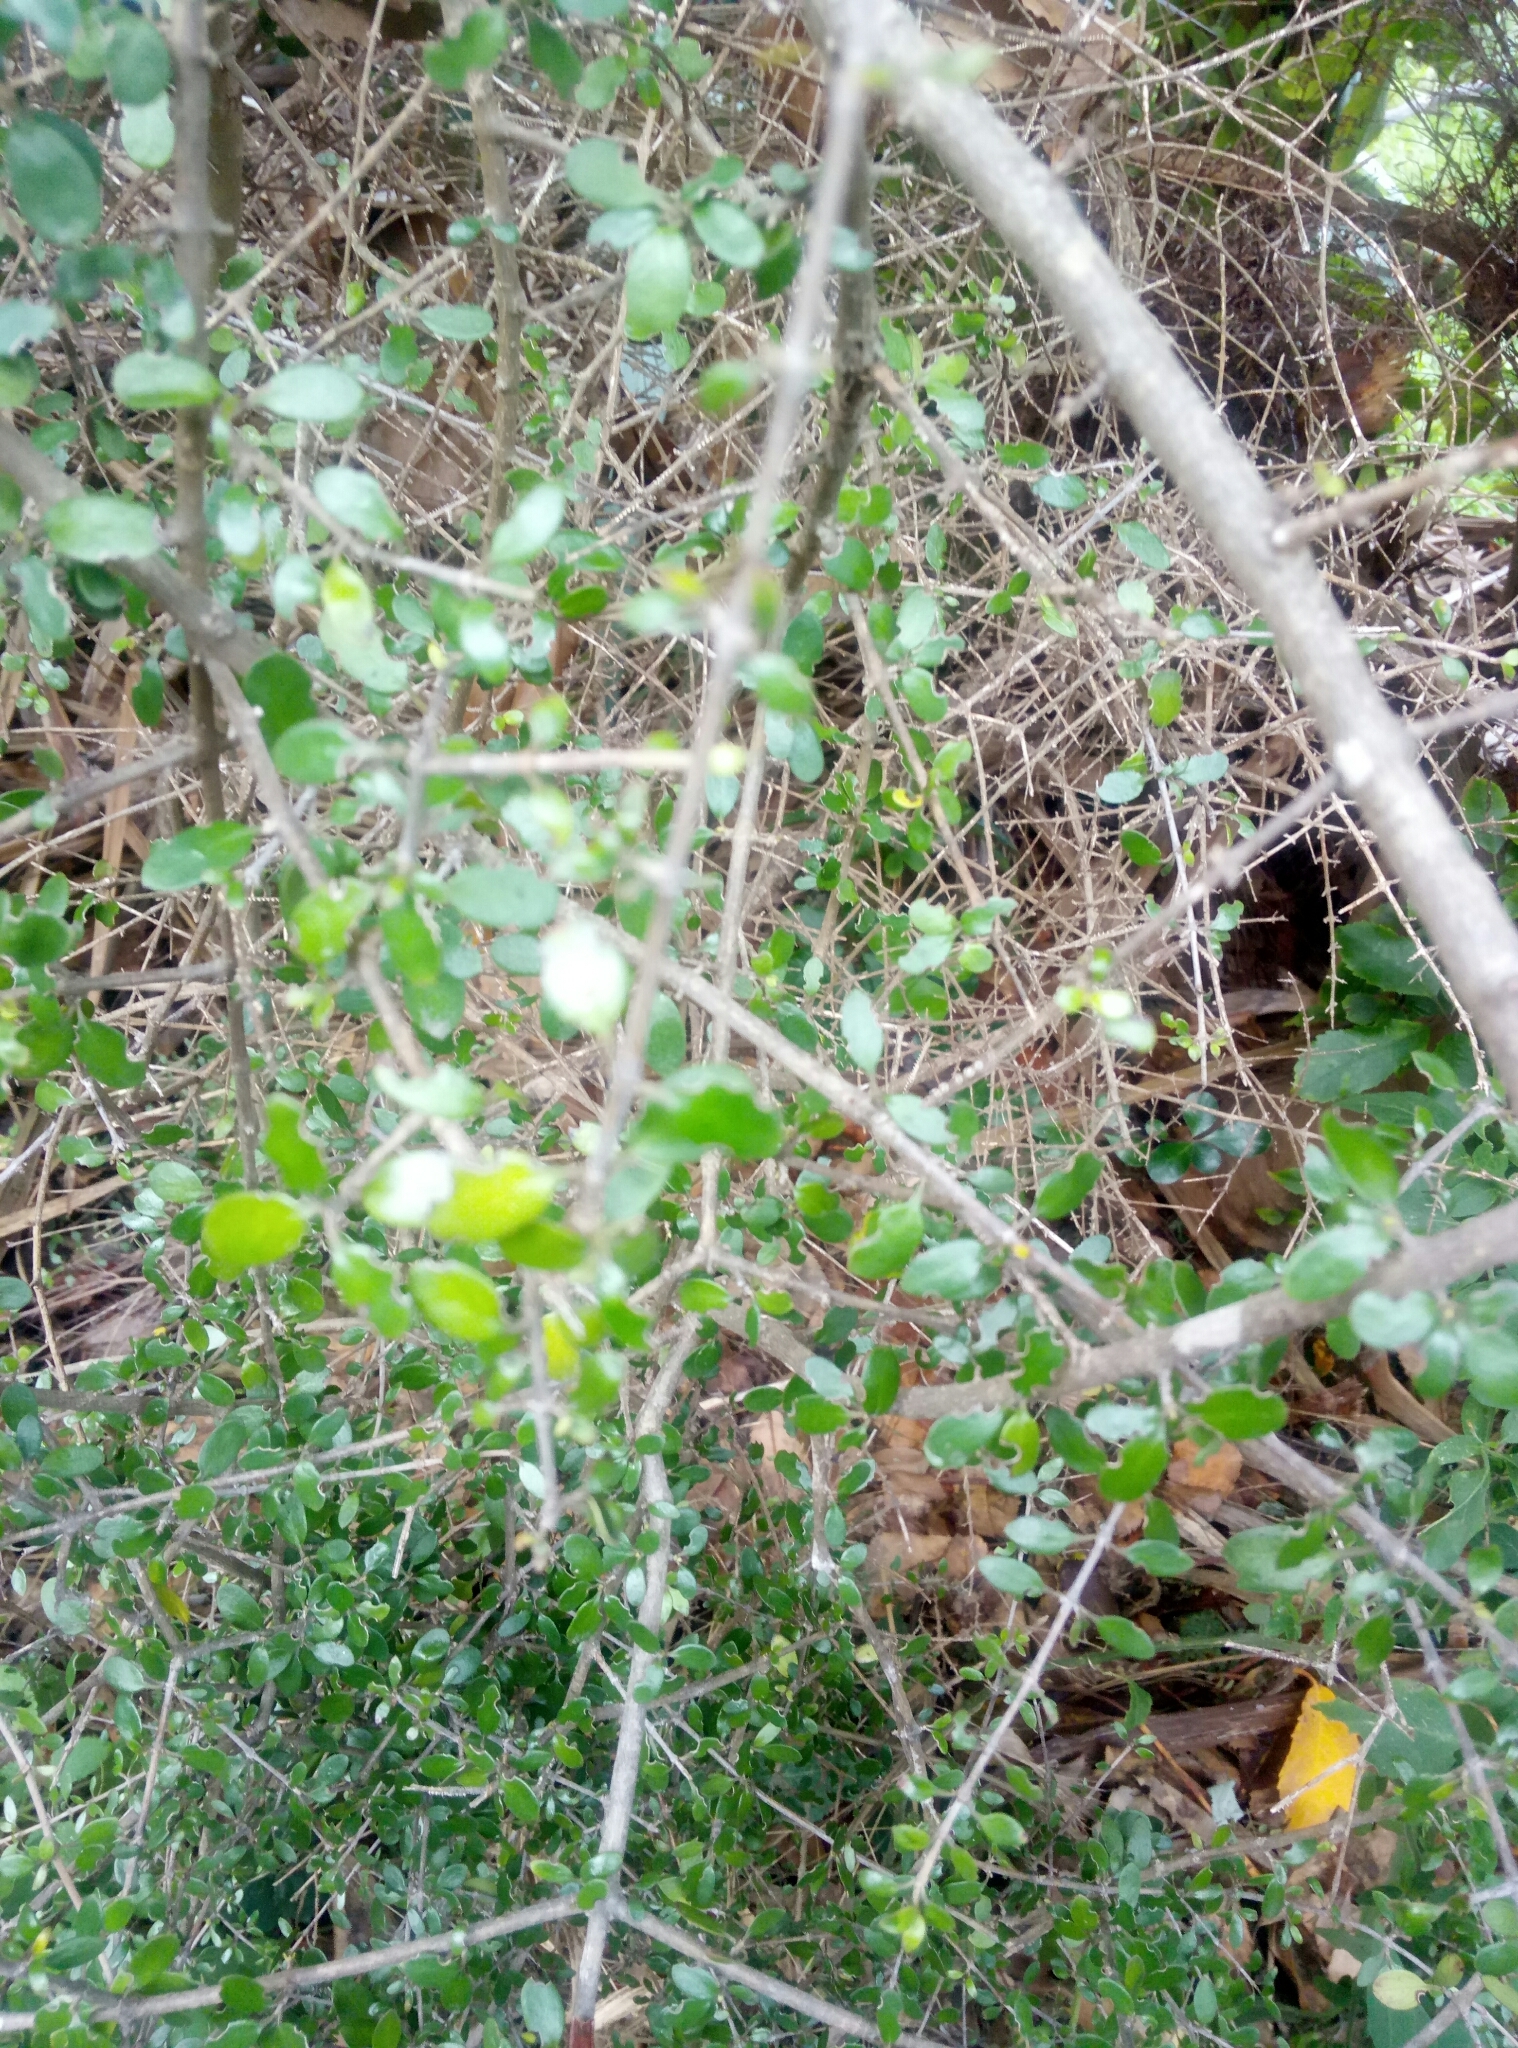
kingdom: Plantae
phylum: Tracheophyta
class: Magnoliopsida
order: Gentianales
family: Rubiaceae
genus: Coprosma
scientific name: Coprosma propinqua
